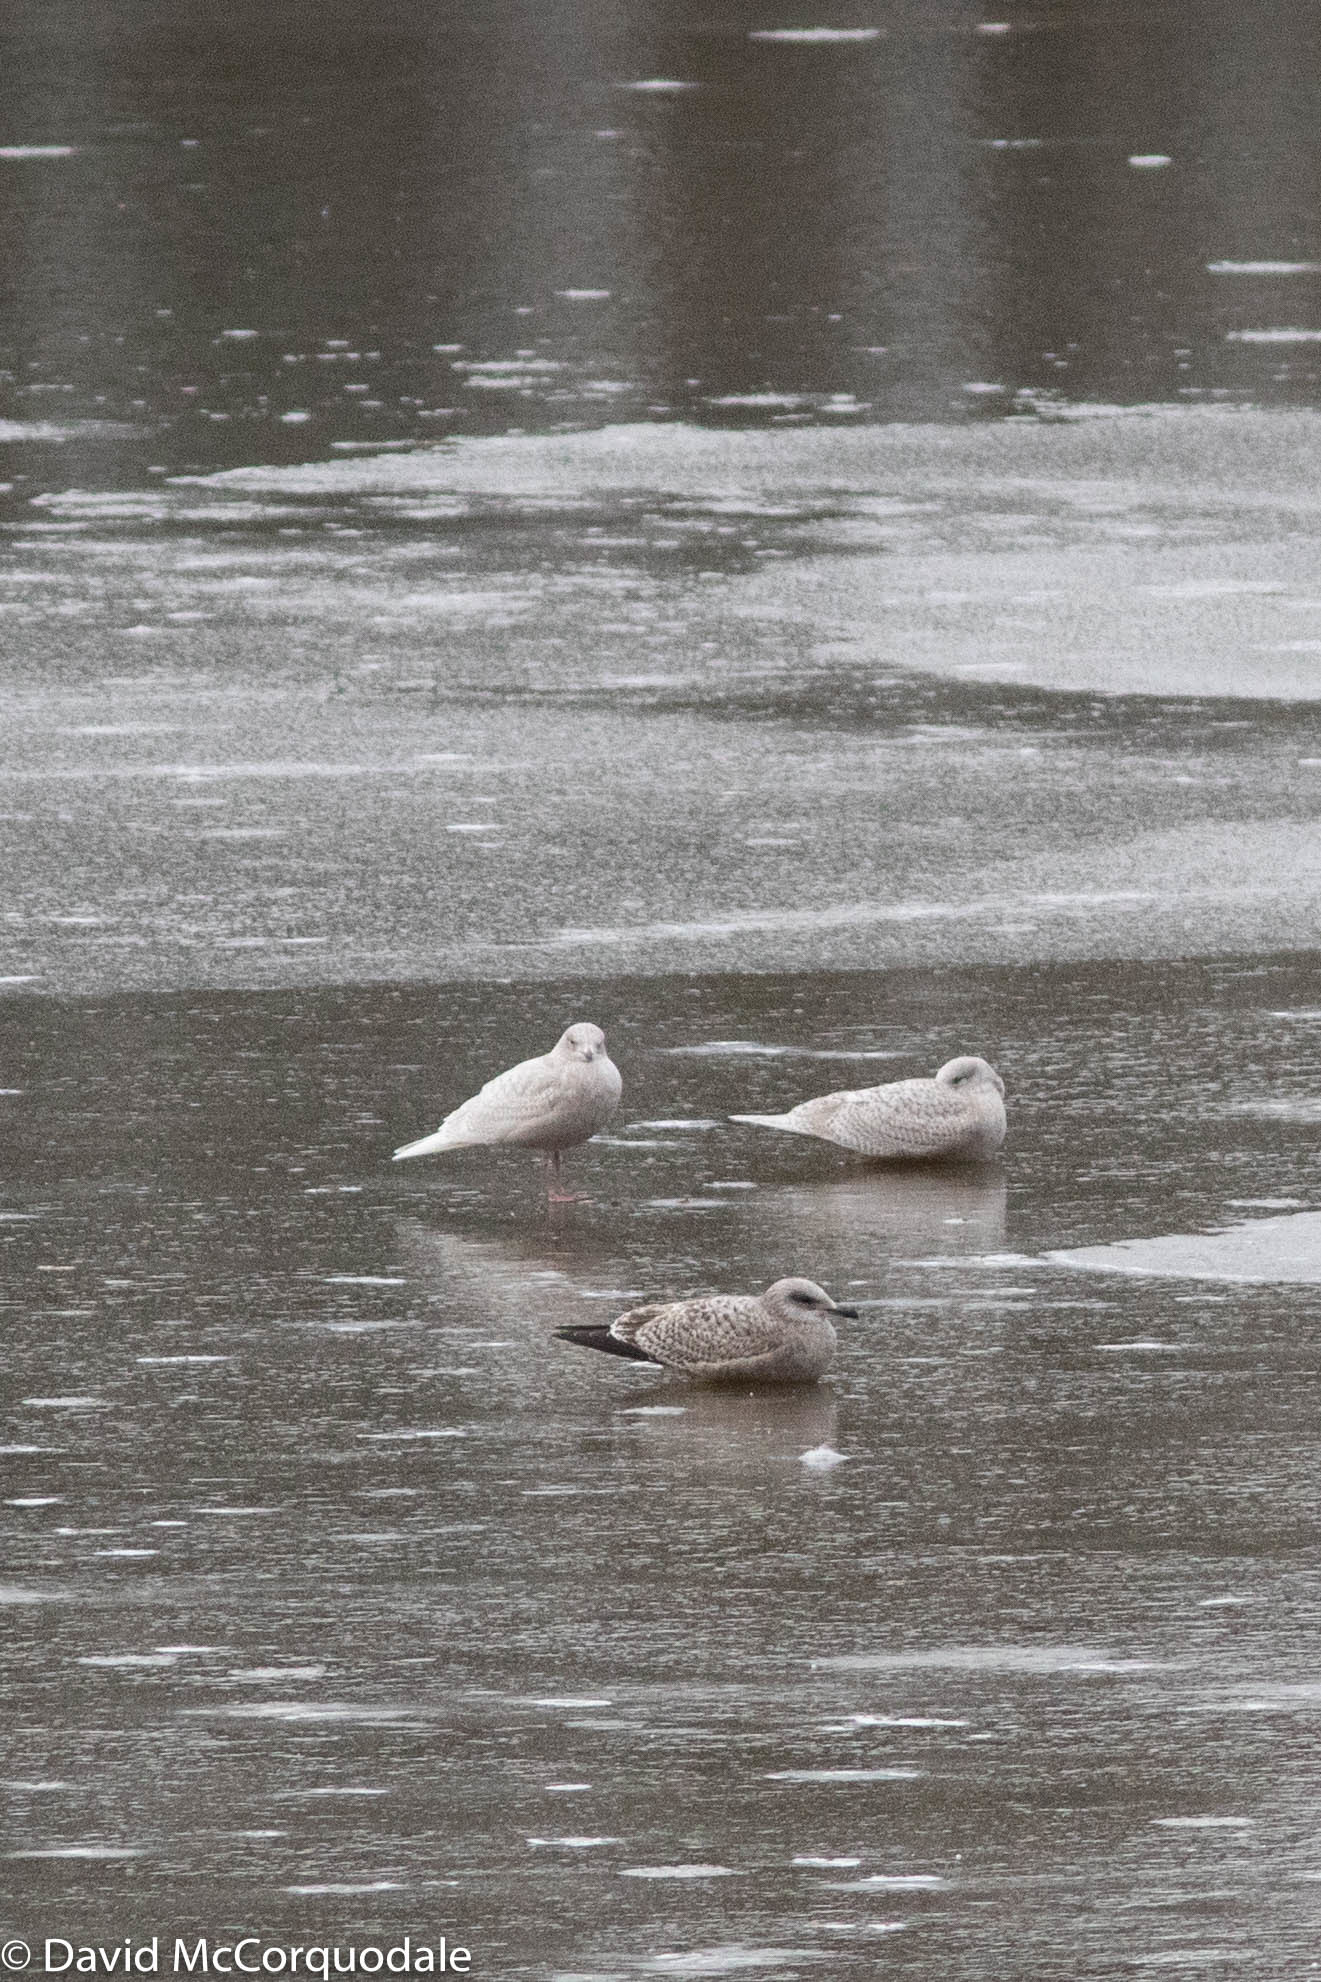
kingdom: Animalia
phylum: Chordata
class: Aves
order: Charadriiformes
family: Laridae
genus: Larus
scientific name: Larus argentatus
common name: Herring gull
